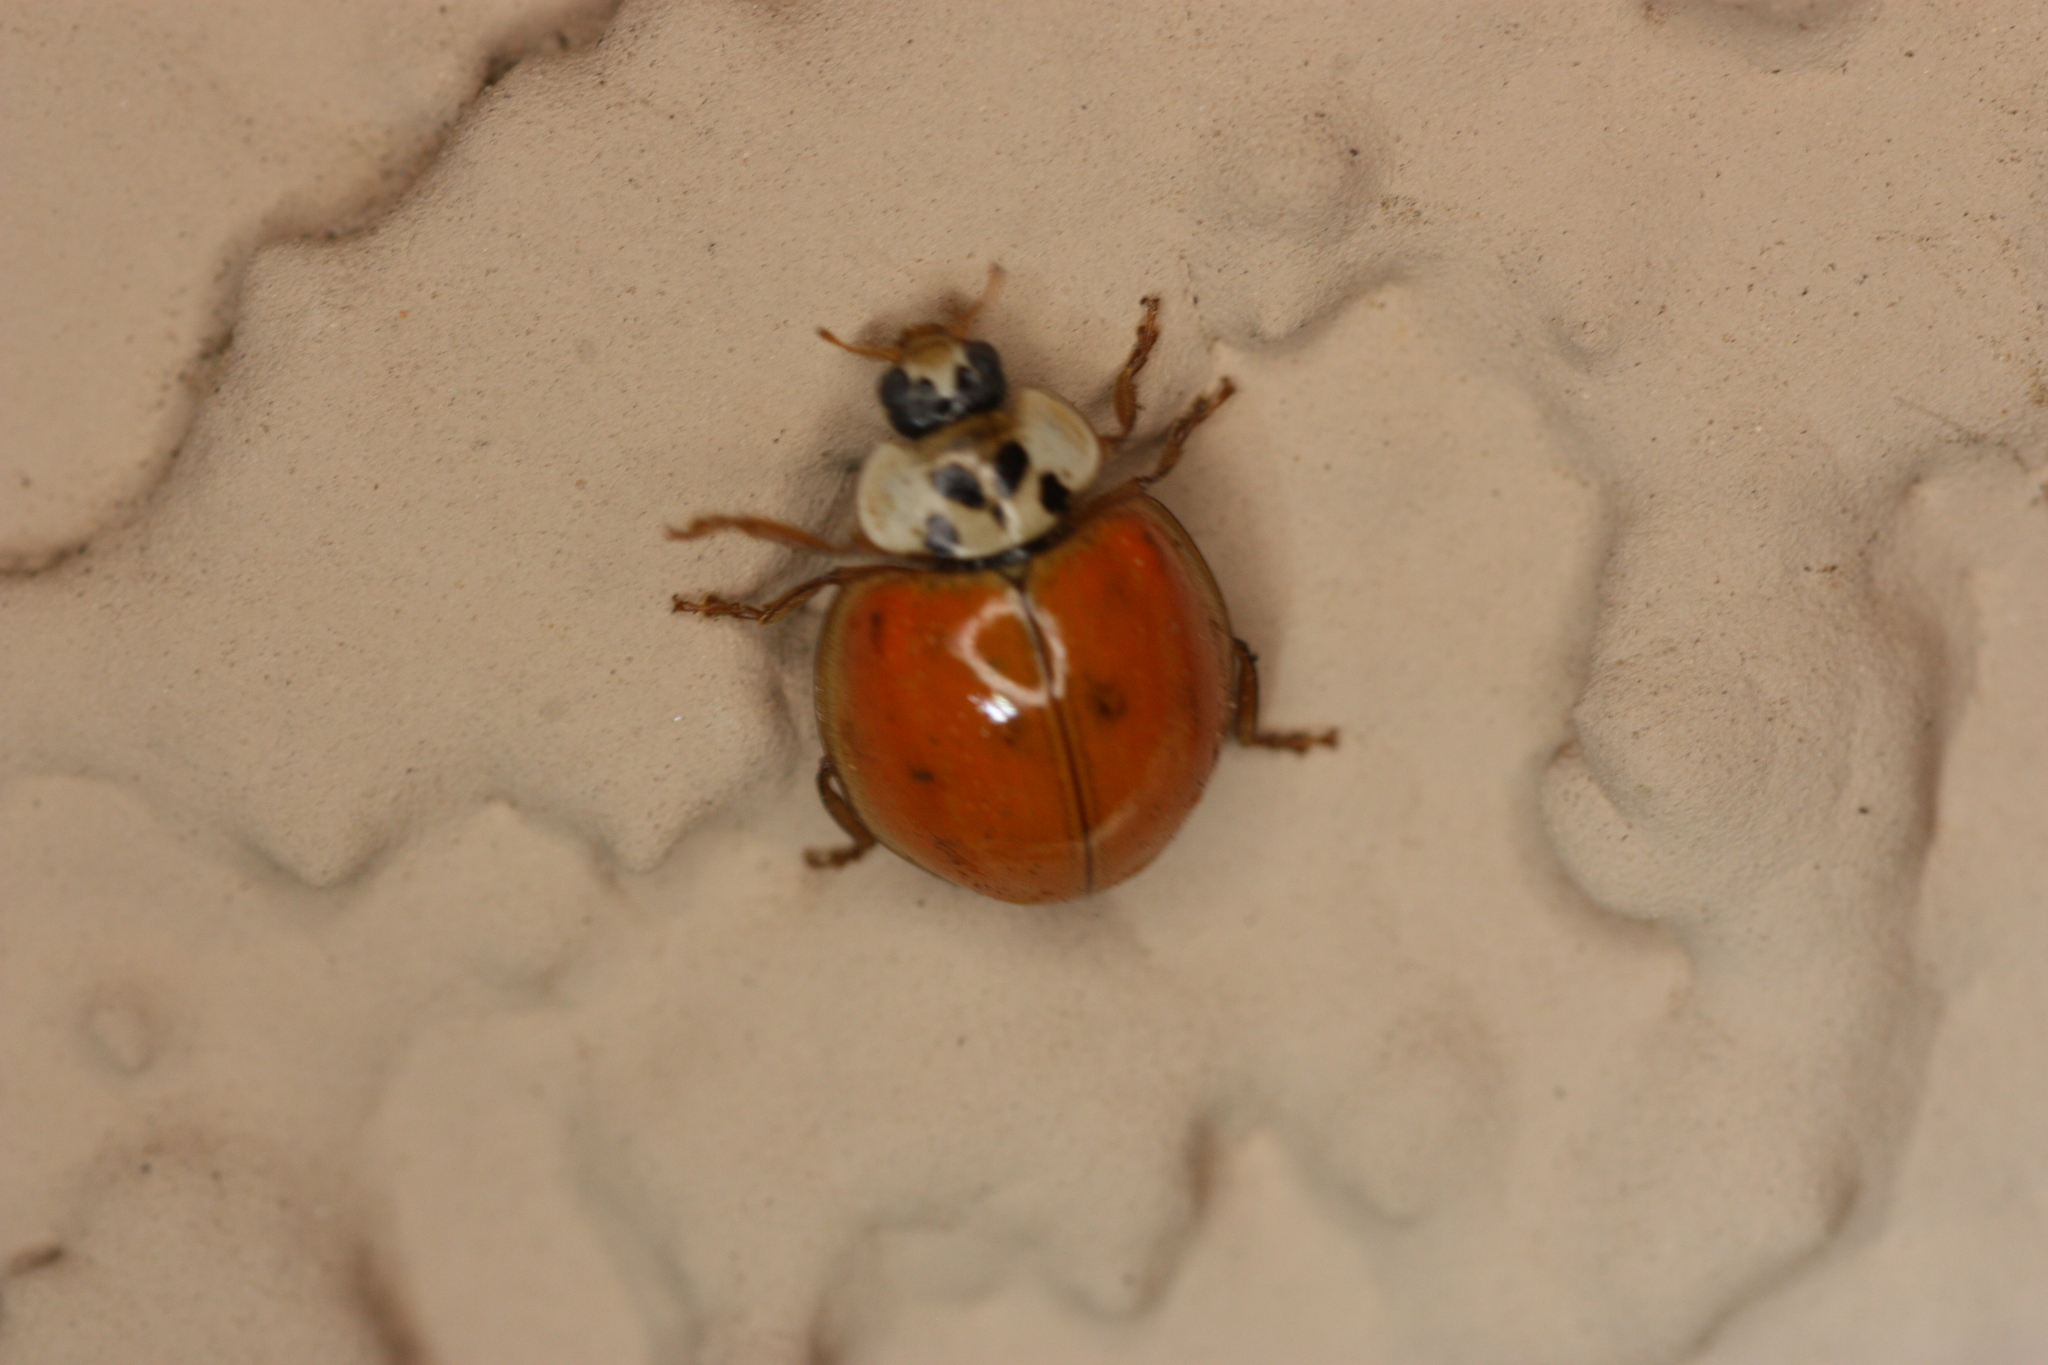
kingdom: Animalia
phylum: Arthropoda
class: Insecta
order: Coleoptera
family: Coccinellidae
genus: Harmonia
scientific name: Harmonia axyridis
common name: Harlequin ladybird
